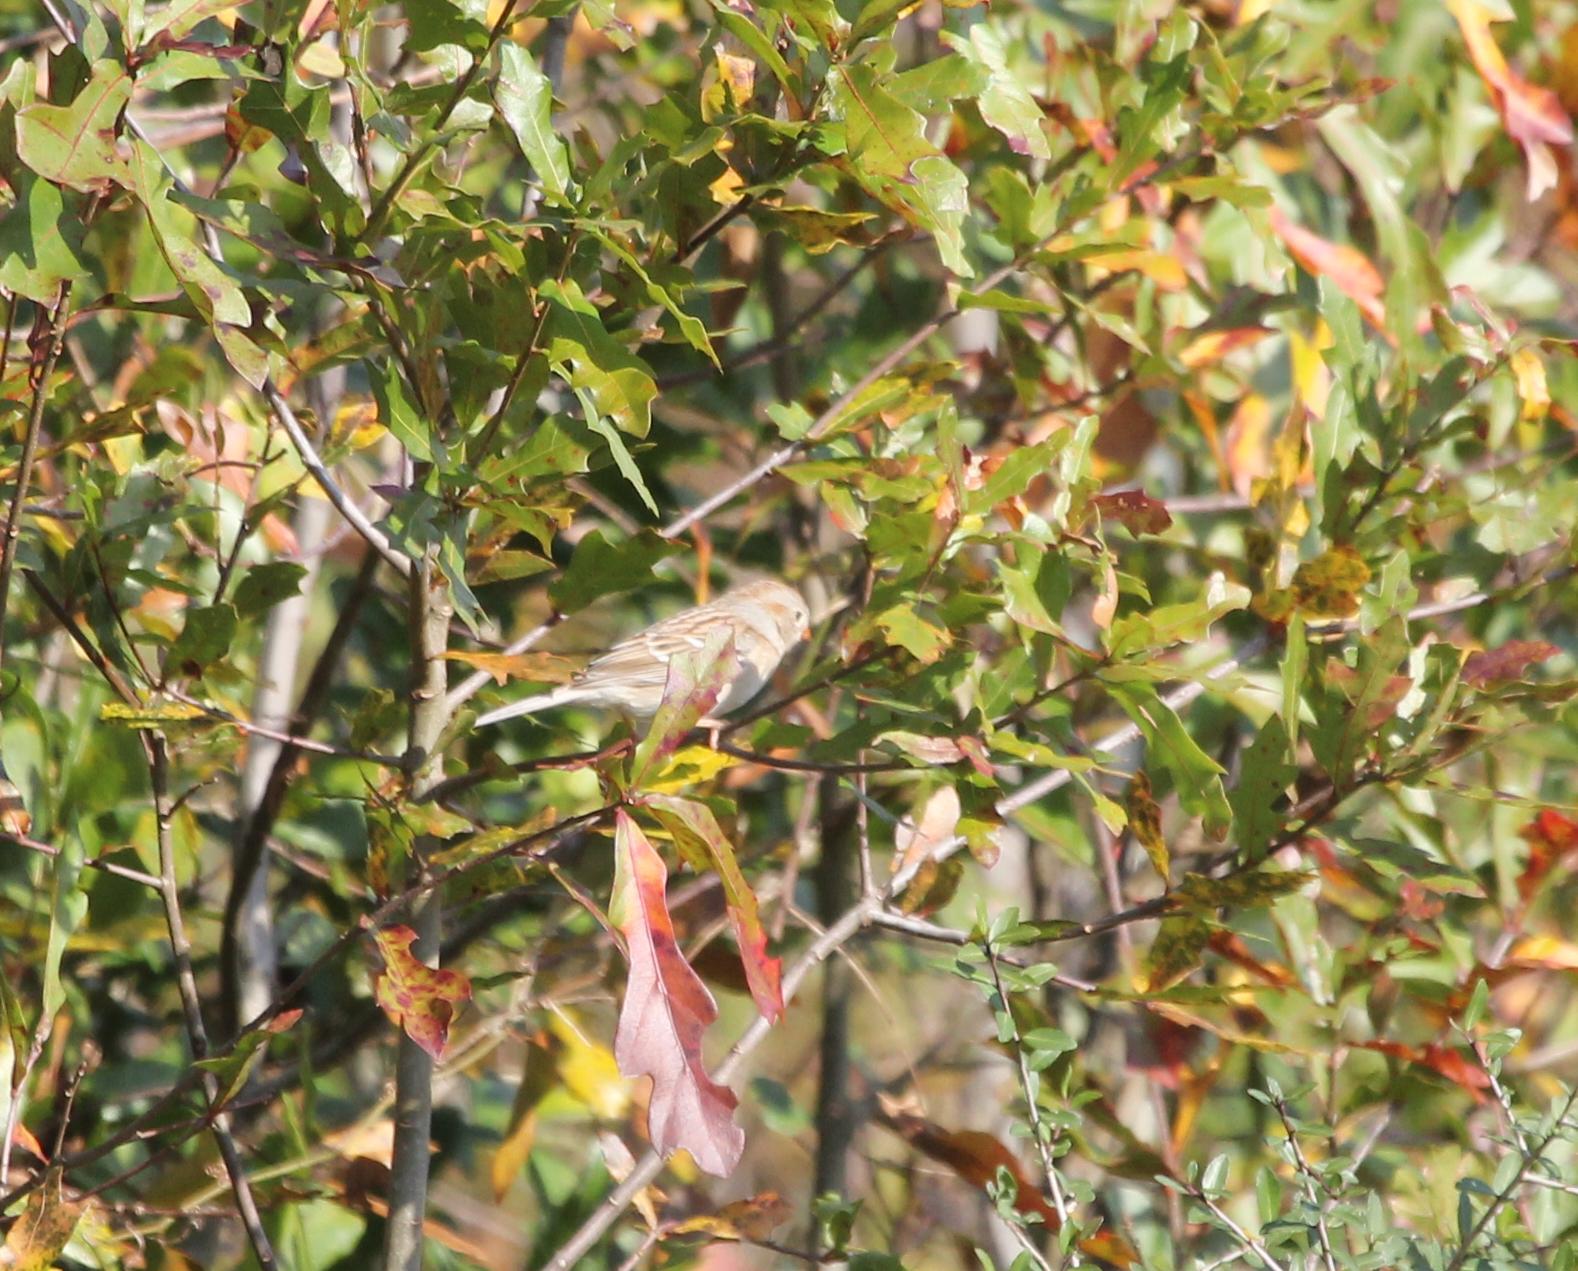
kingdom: Animalia
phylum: Chordata
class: Aves
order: Passeriformes
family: Passerellidae
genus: Spizella
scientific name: Spizella pusilla
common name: Field sparrow
